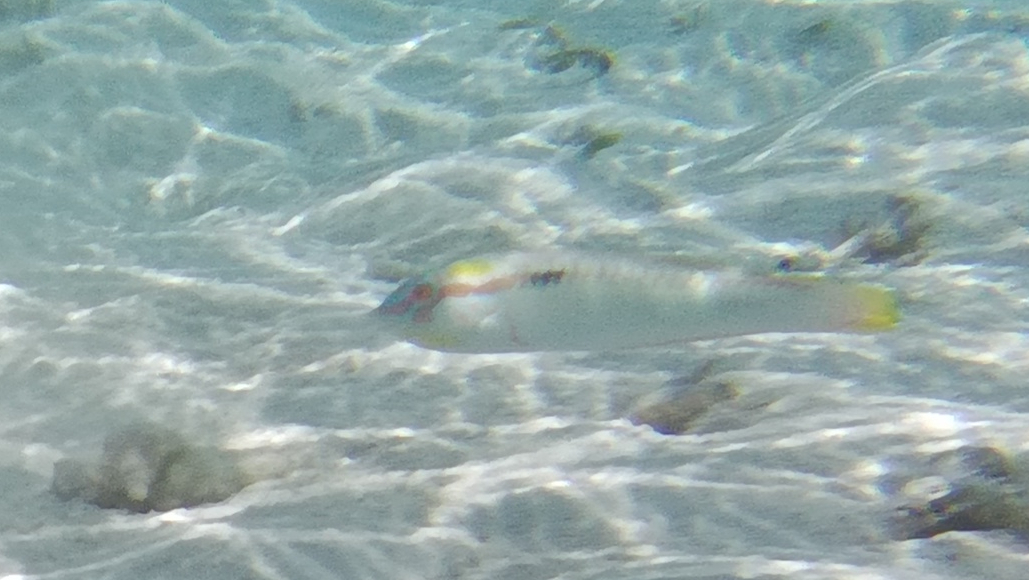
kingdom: Animalia
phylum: Chordata
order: Perciformes
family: Labridae
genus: Halichoeres
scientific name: Halichoeres scapularis
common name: Brownbanded wrasse
